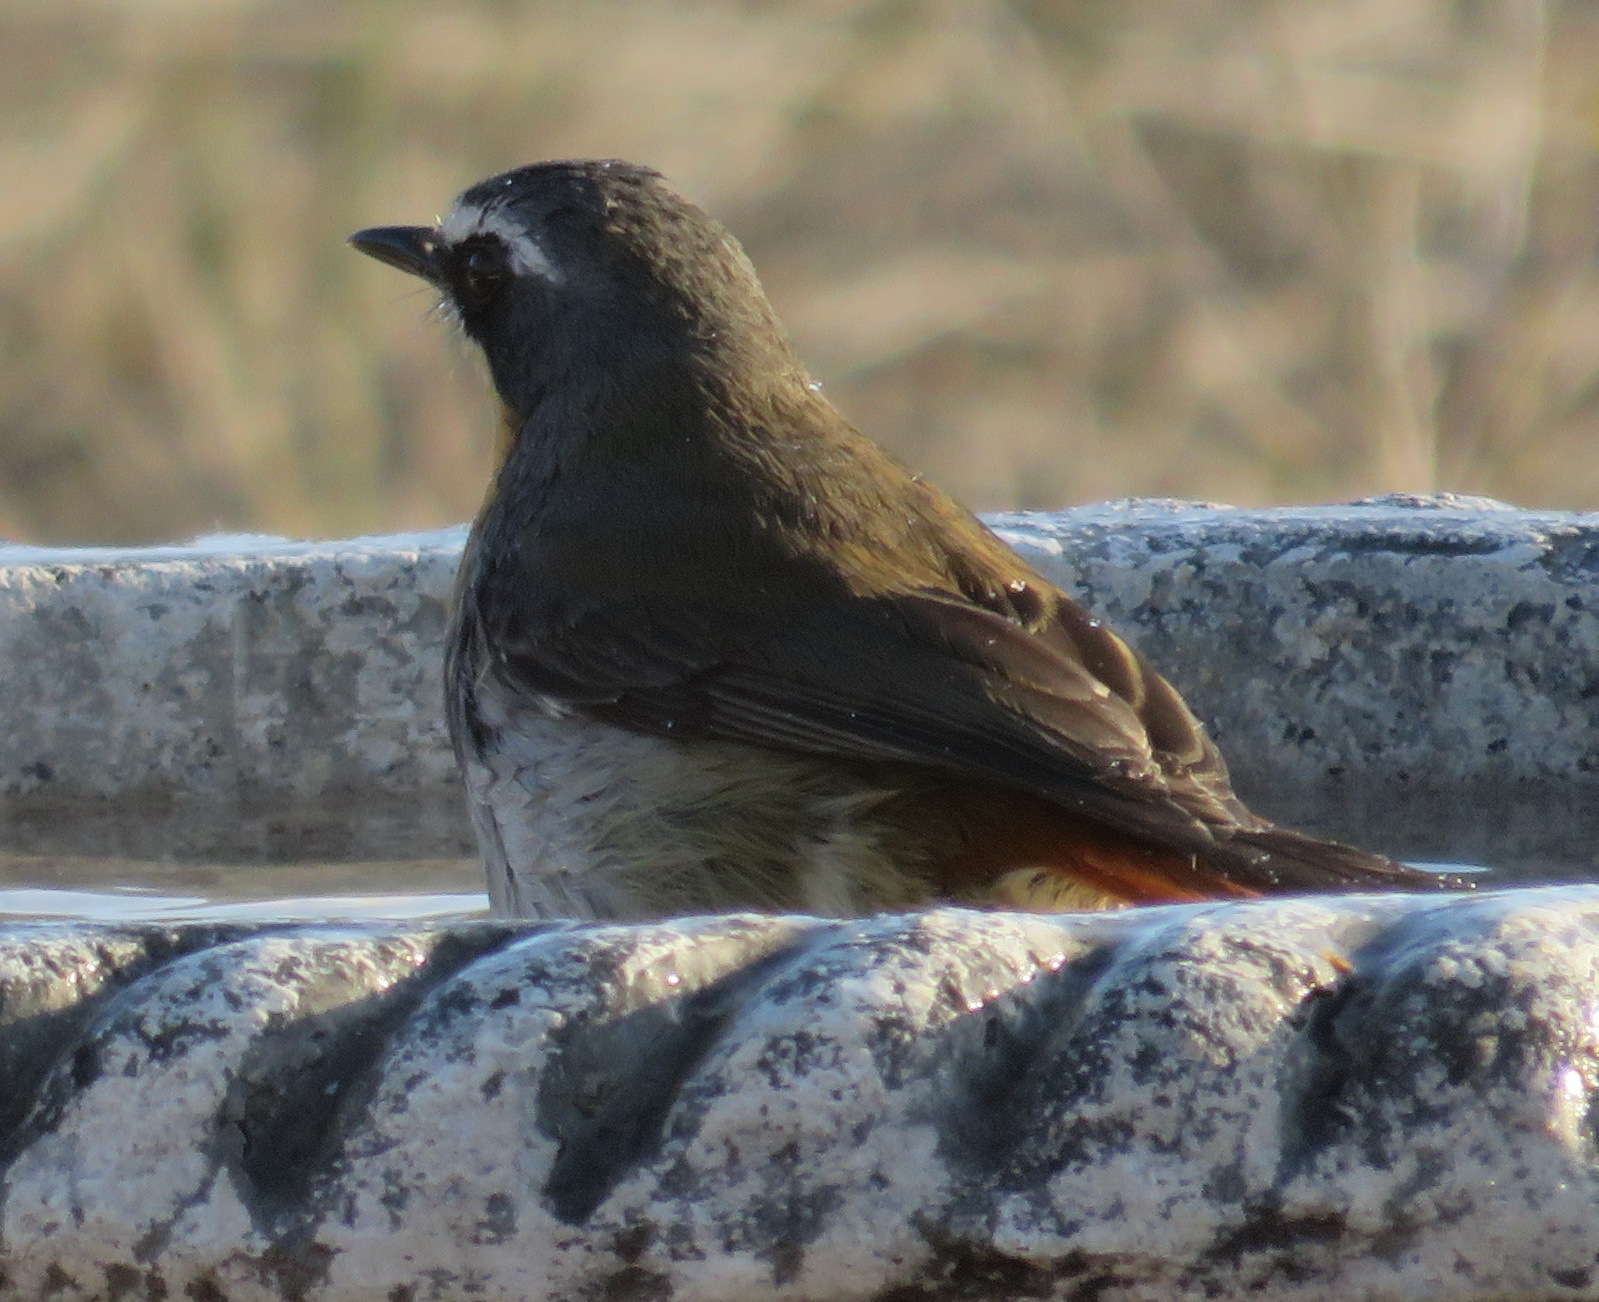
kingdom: Animalia
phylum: Chordata
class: Aves
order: Passeriformes
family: Muscicapidae
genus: Cossypha
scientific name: Cossypha caffra
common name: Cape robin-chat
